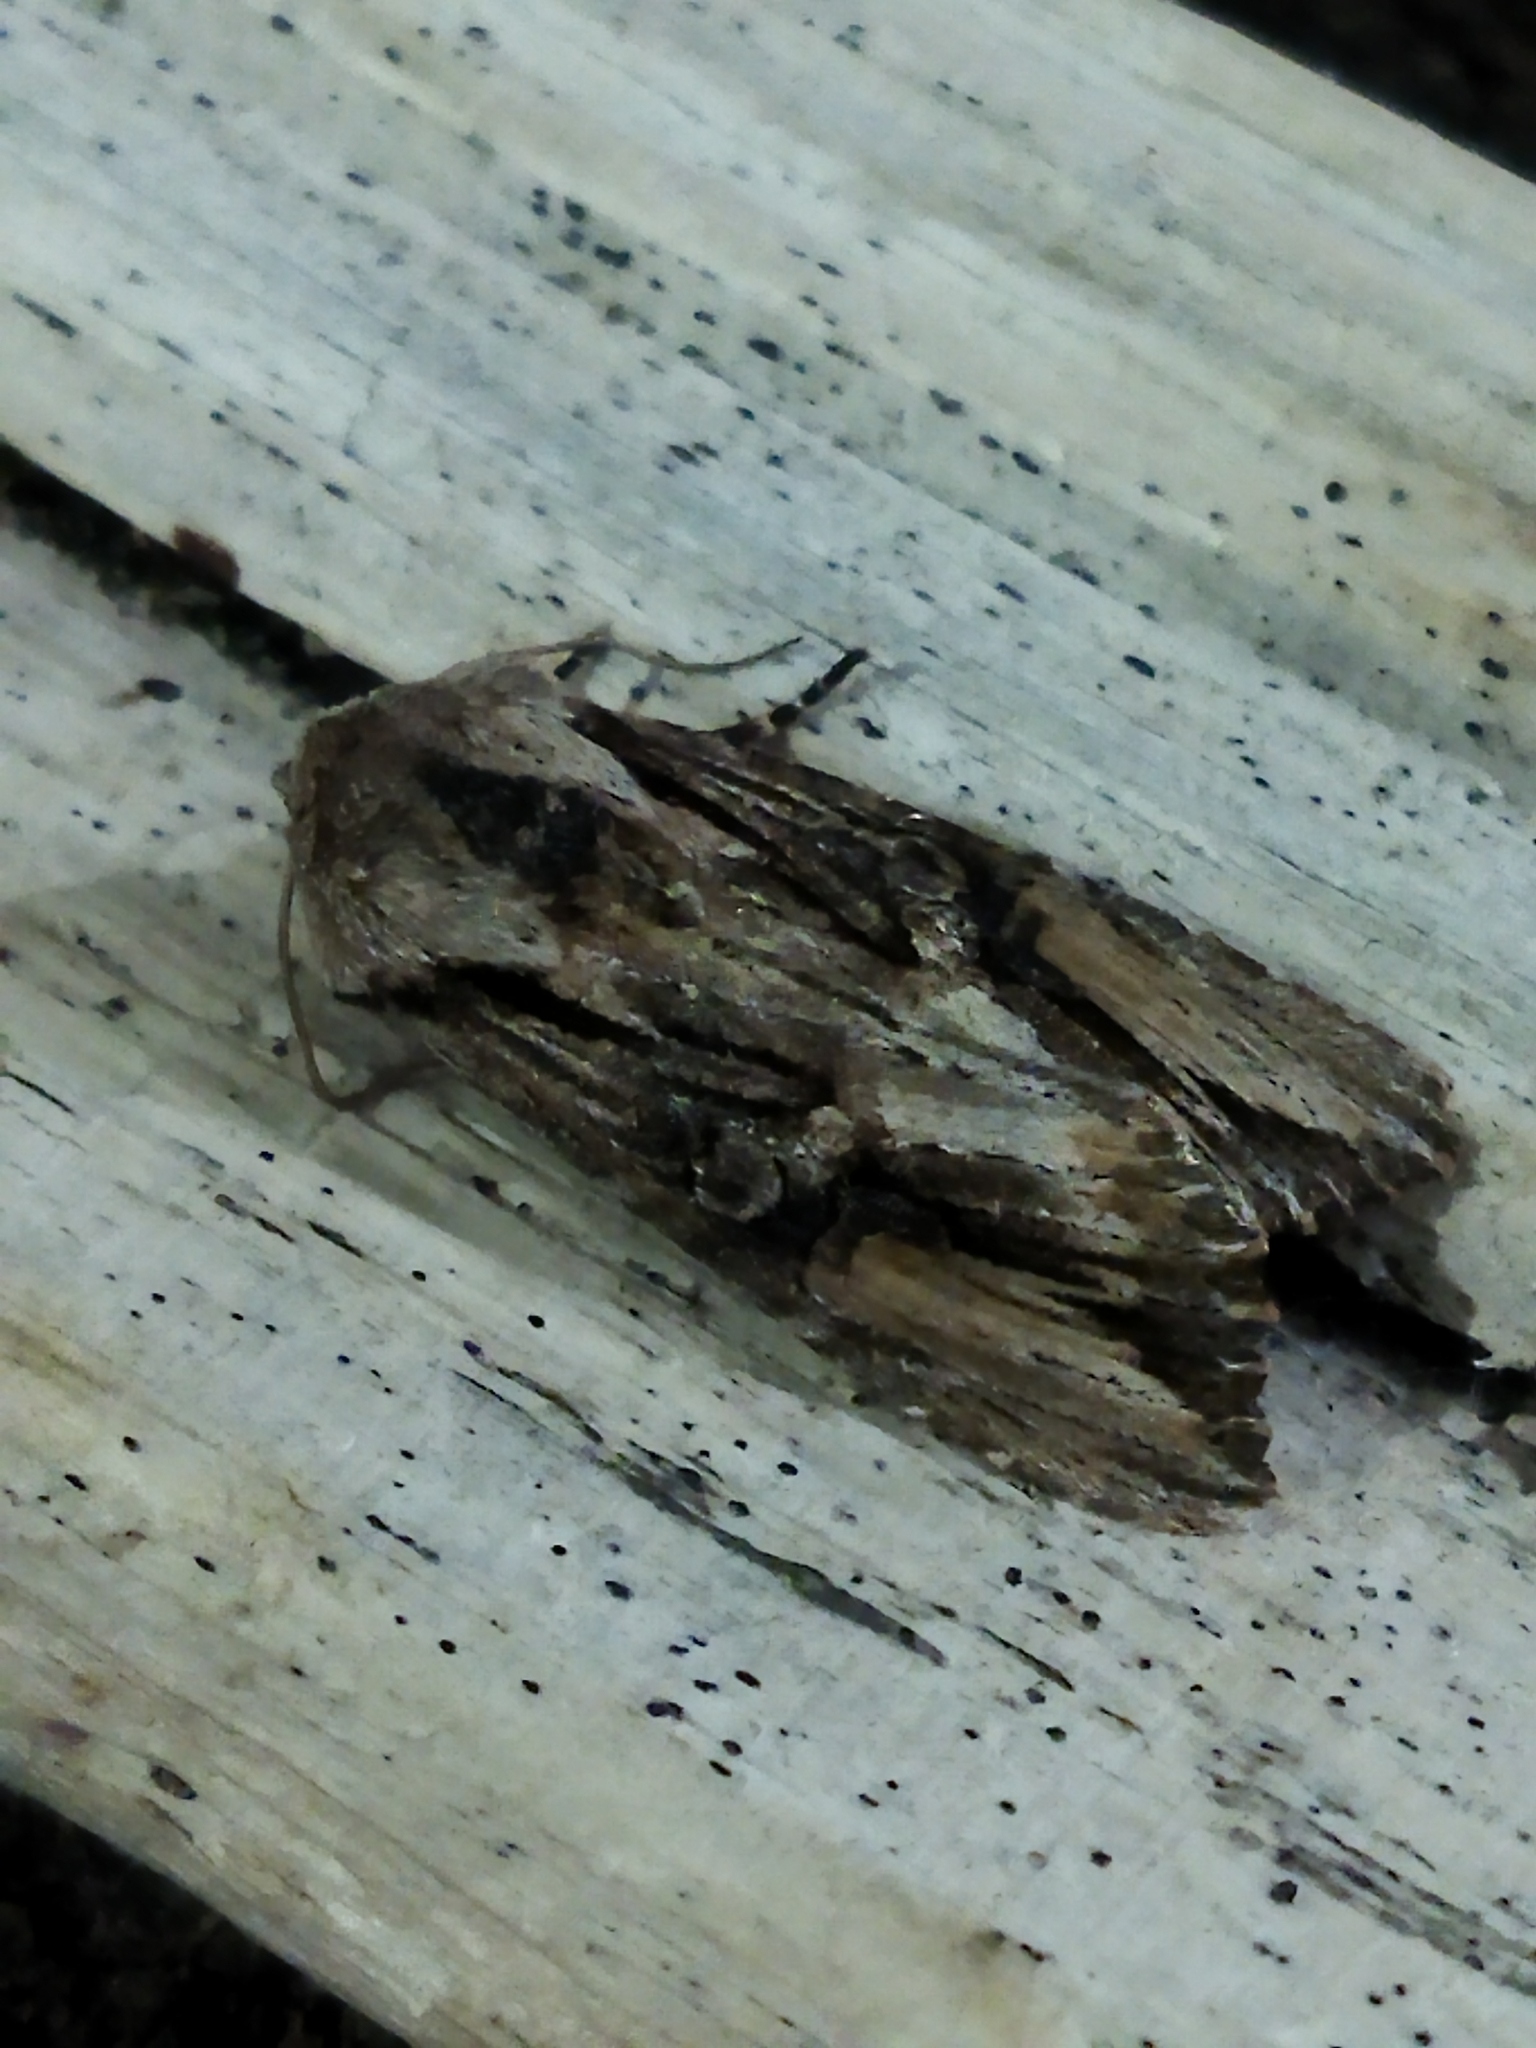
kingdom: Animalia
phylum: Arthropoda
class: Insecta
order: Lepidoptera
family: Noctuidae
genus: Egira
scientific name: Egira
